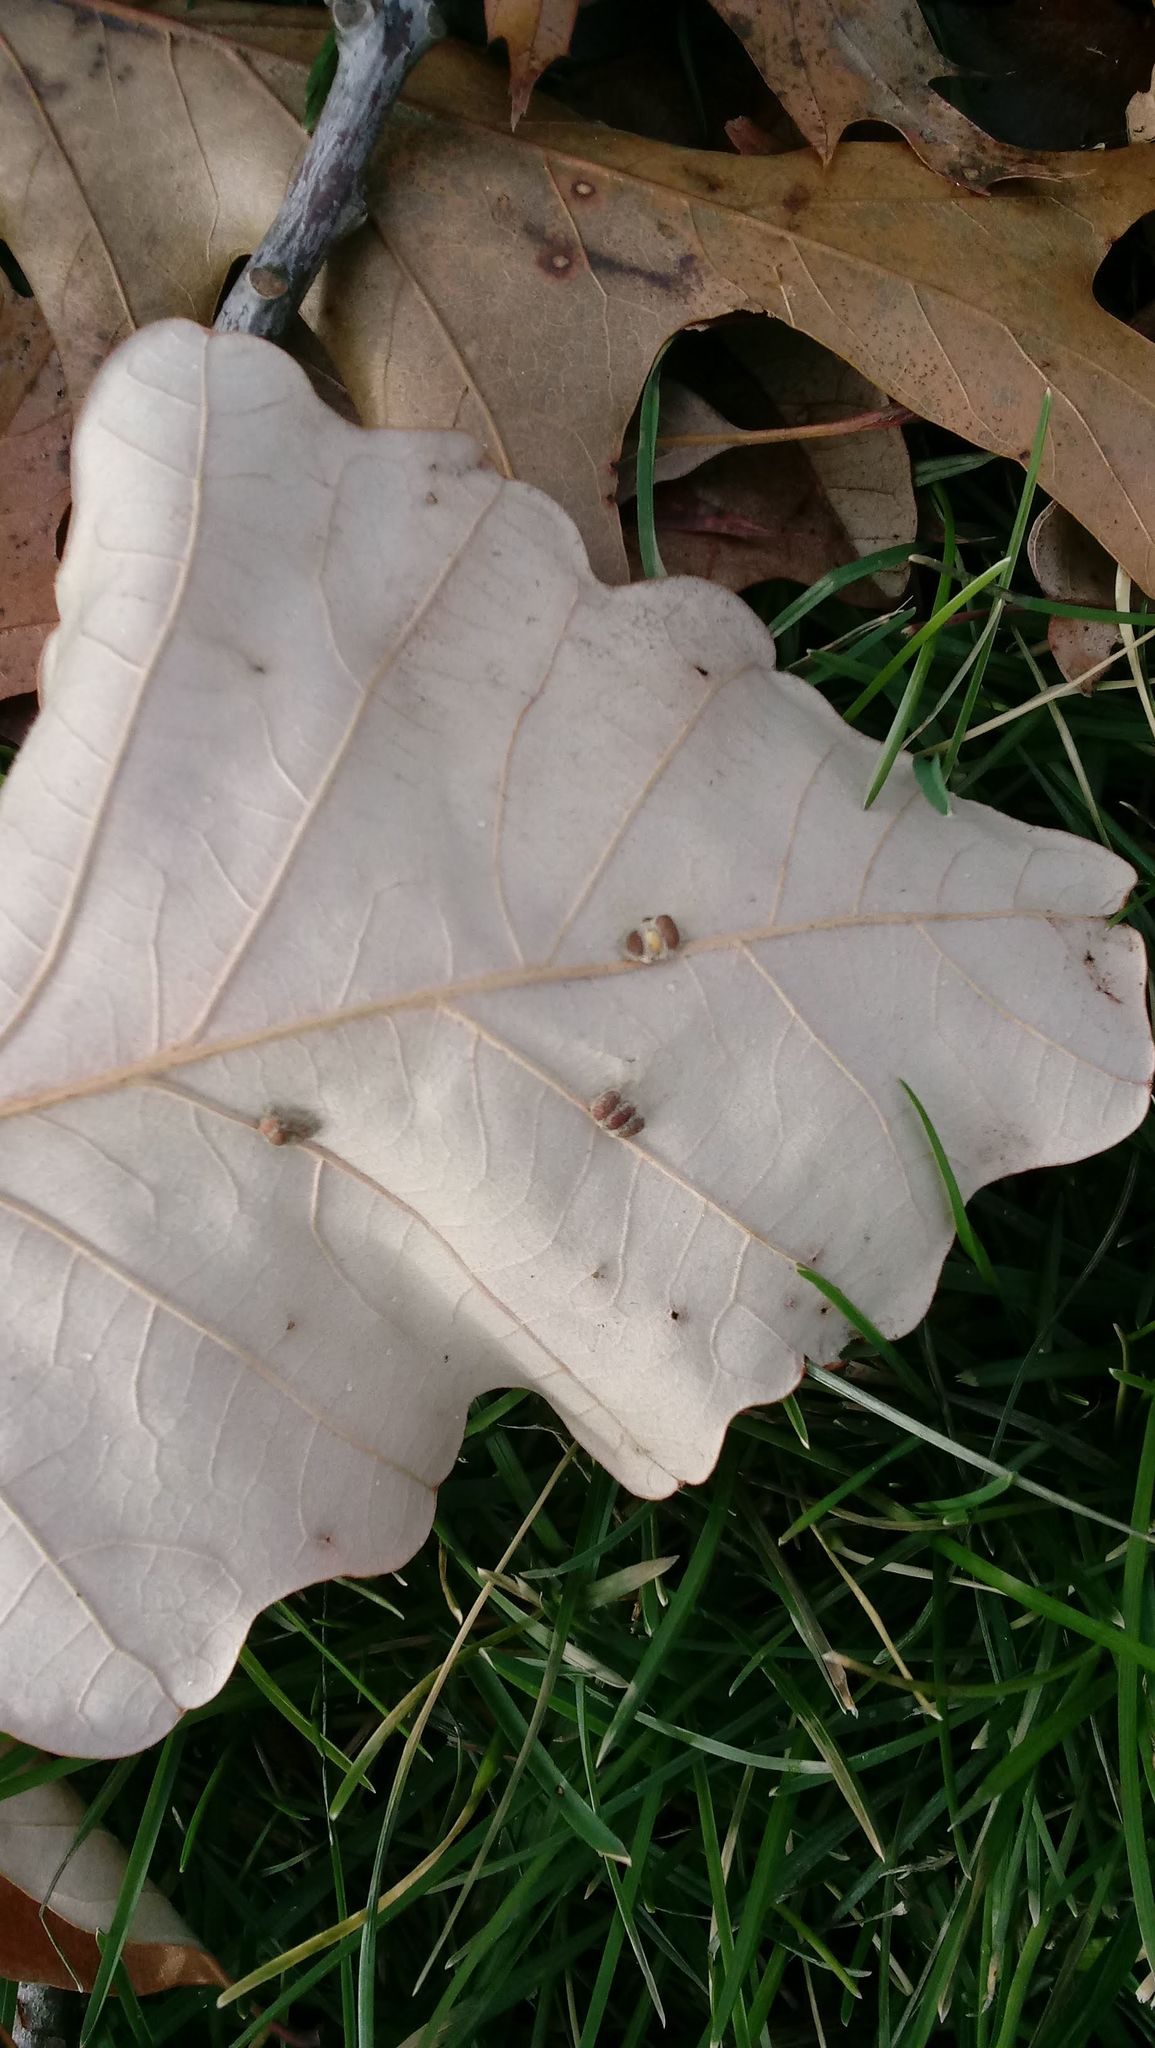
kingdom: Animalia
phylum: Arthropoda
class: Insecta
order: Hymenoptera
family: Cynipidae
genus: Andricus
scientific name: Andricus Druon ignotum
